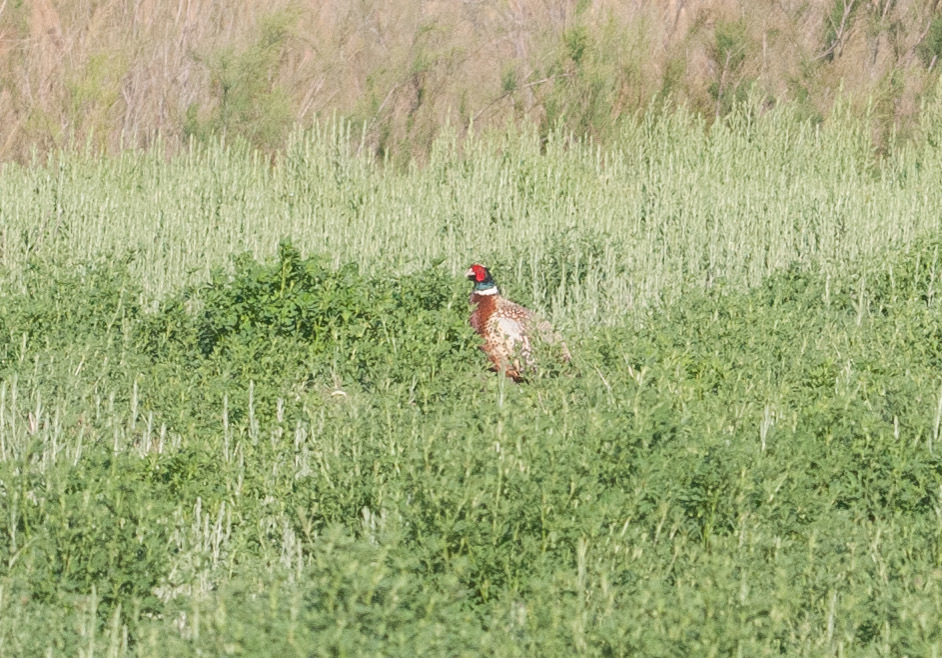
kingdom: Animalia
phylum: Chordata
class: Aves
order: Galliformes
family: Phasianidae
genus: Phasianus
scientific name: Phasianus colchicus
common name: Common pheasant
